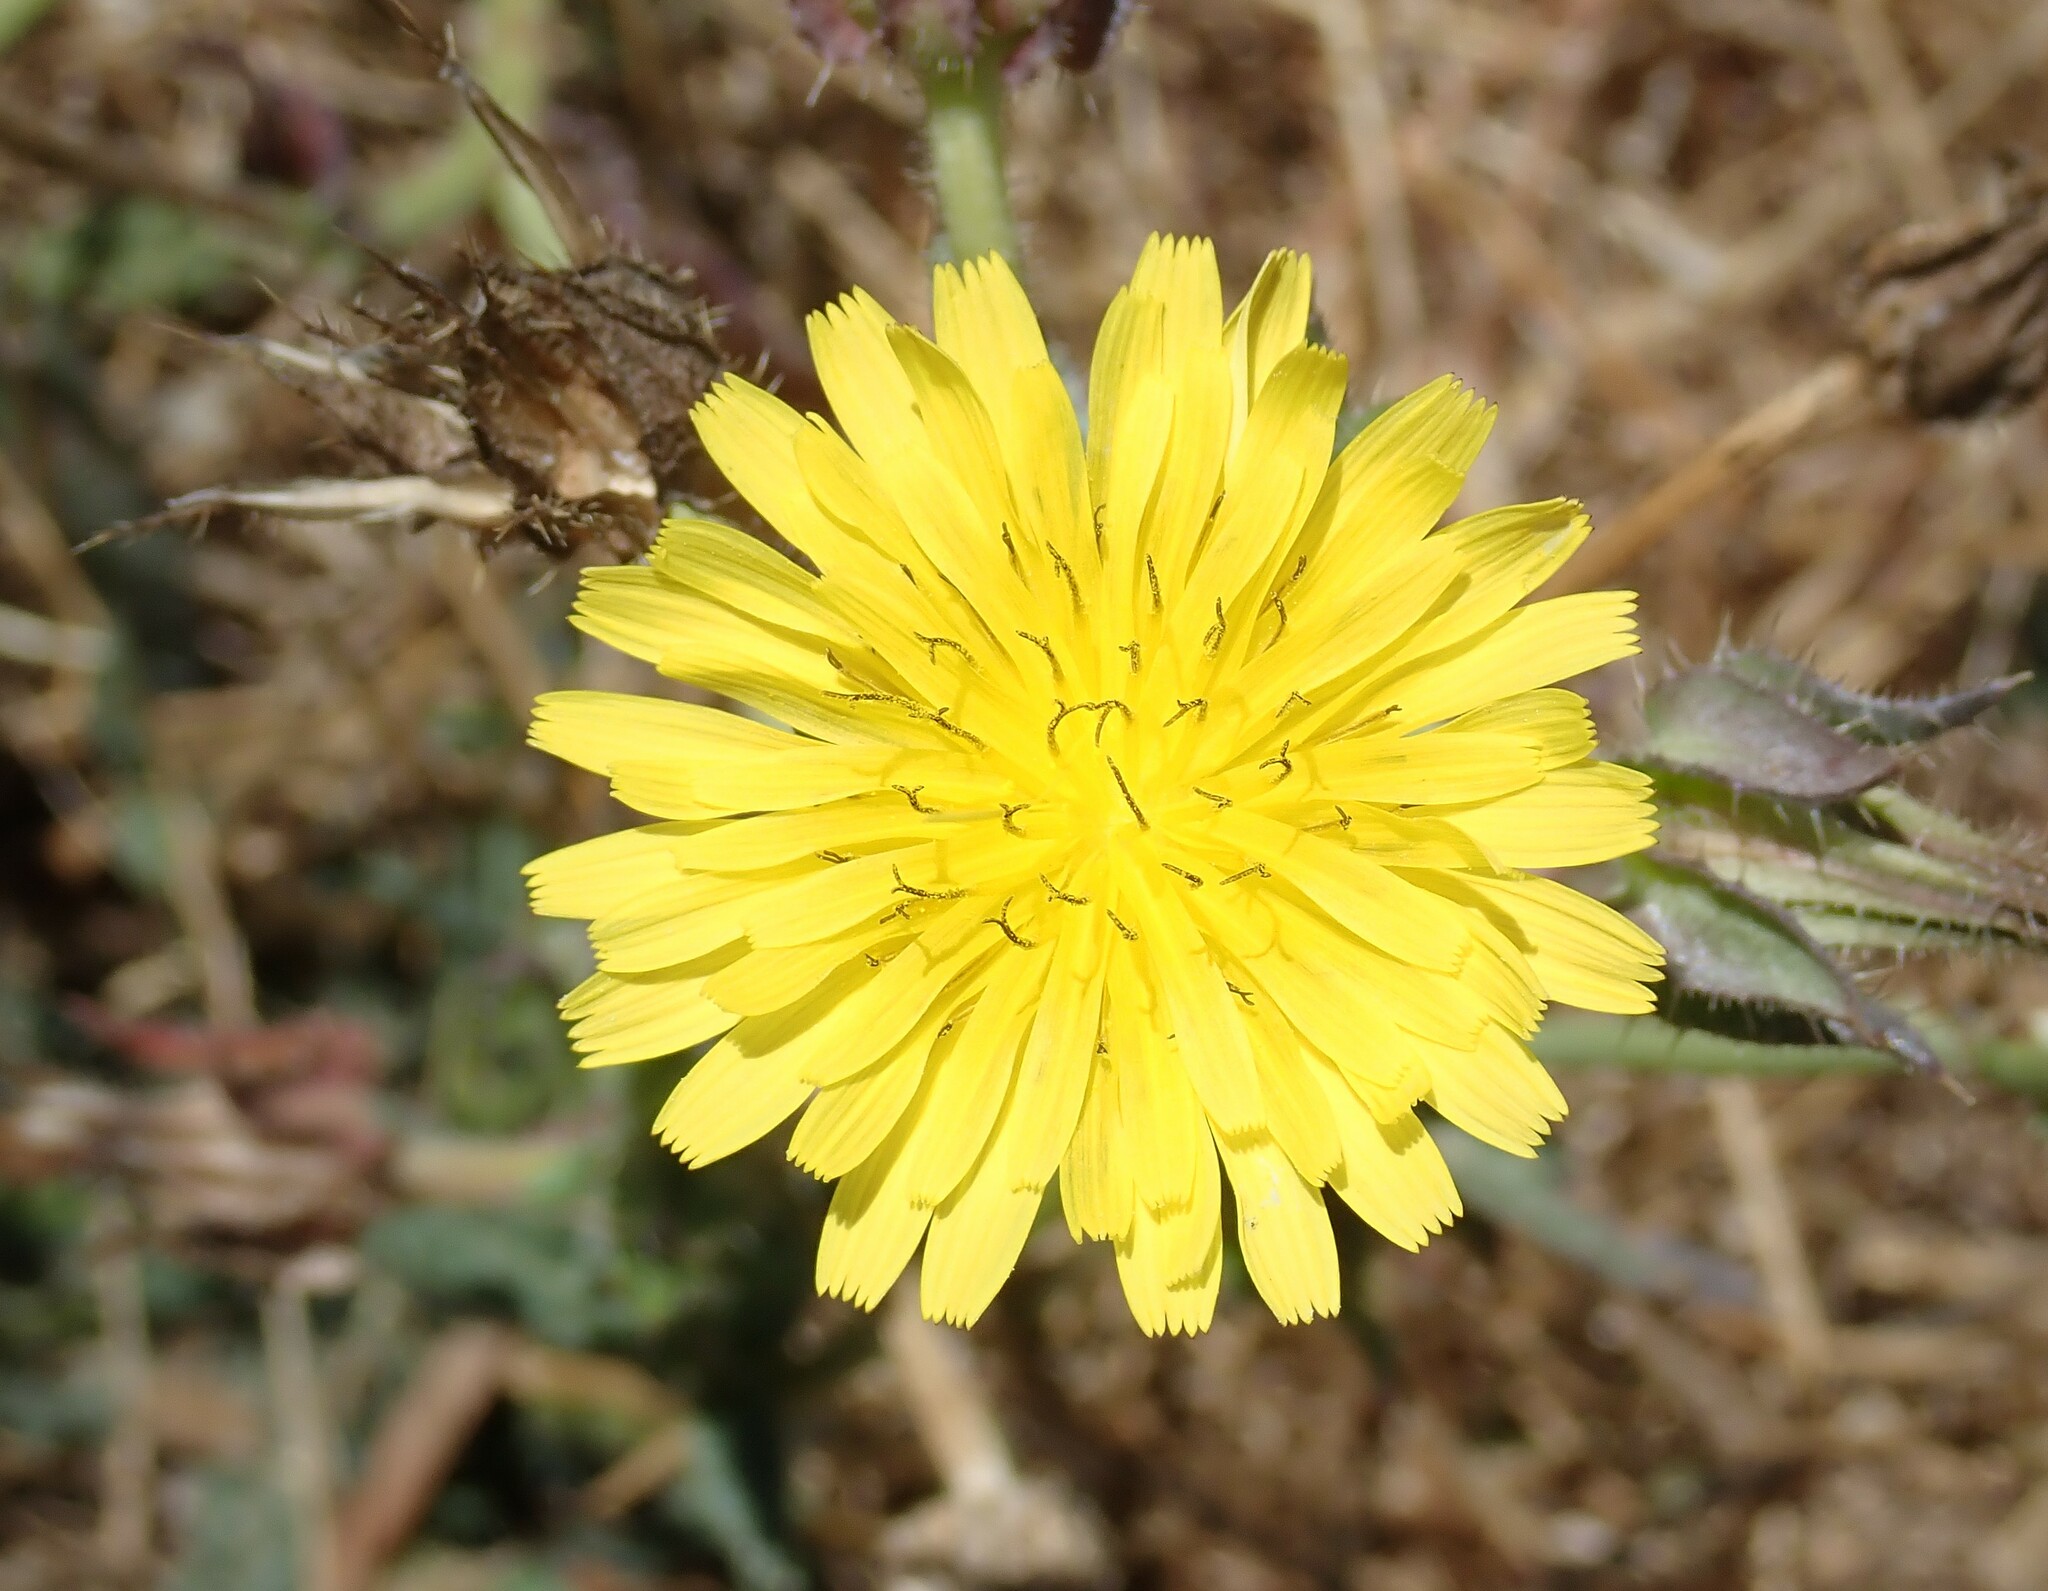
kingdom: Plantae
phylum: Tracheophyta
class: Magnoliopsida
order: Asterales
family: Asteraceae
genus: Helminthotheca
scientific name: Helminthotheca echioides
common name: Ox-tongue
